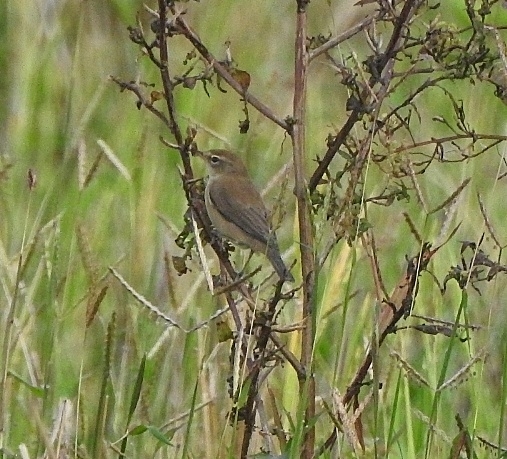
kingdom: Animalia
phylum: Chordata
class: Aves
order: Passeriformes
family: Acrocephalidae
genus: Iduna
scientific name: Iduna caligata
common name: Booted warbler
